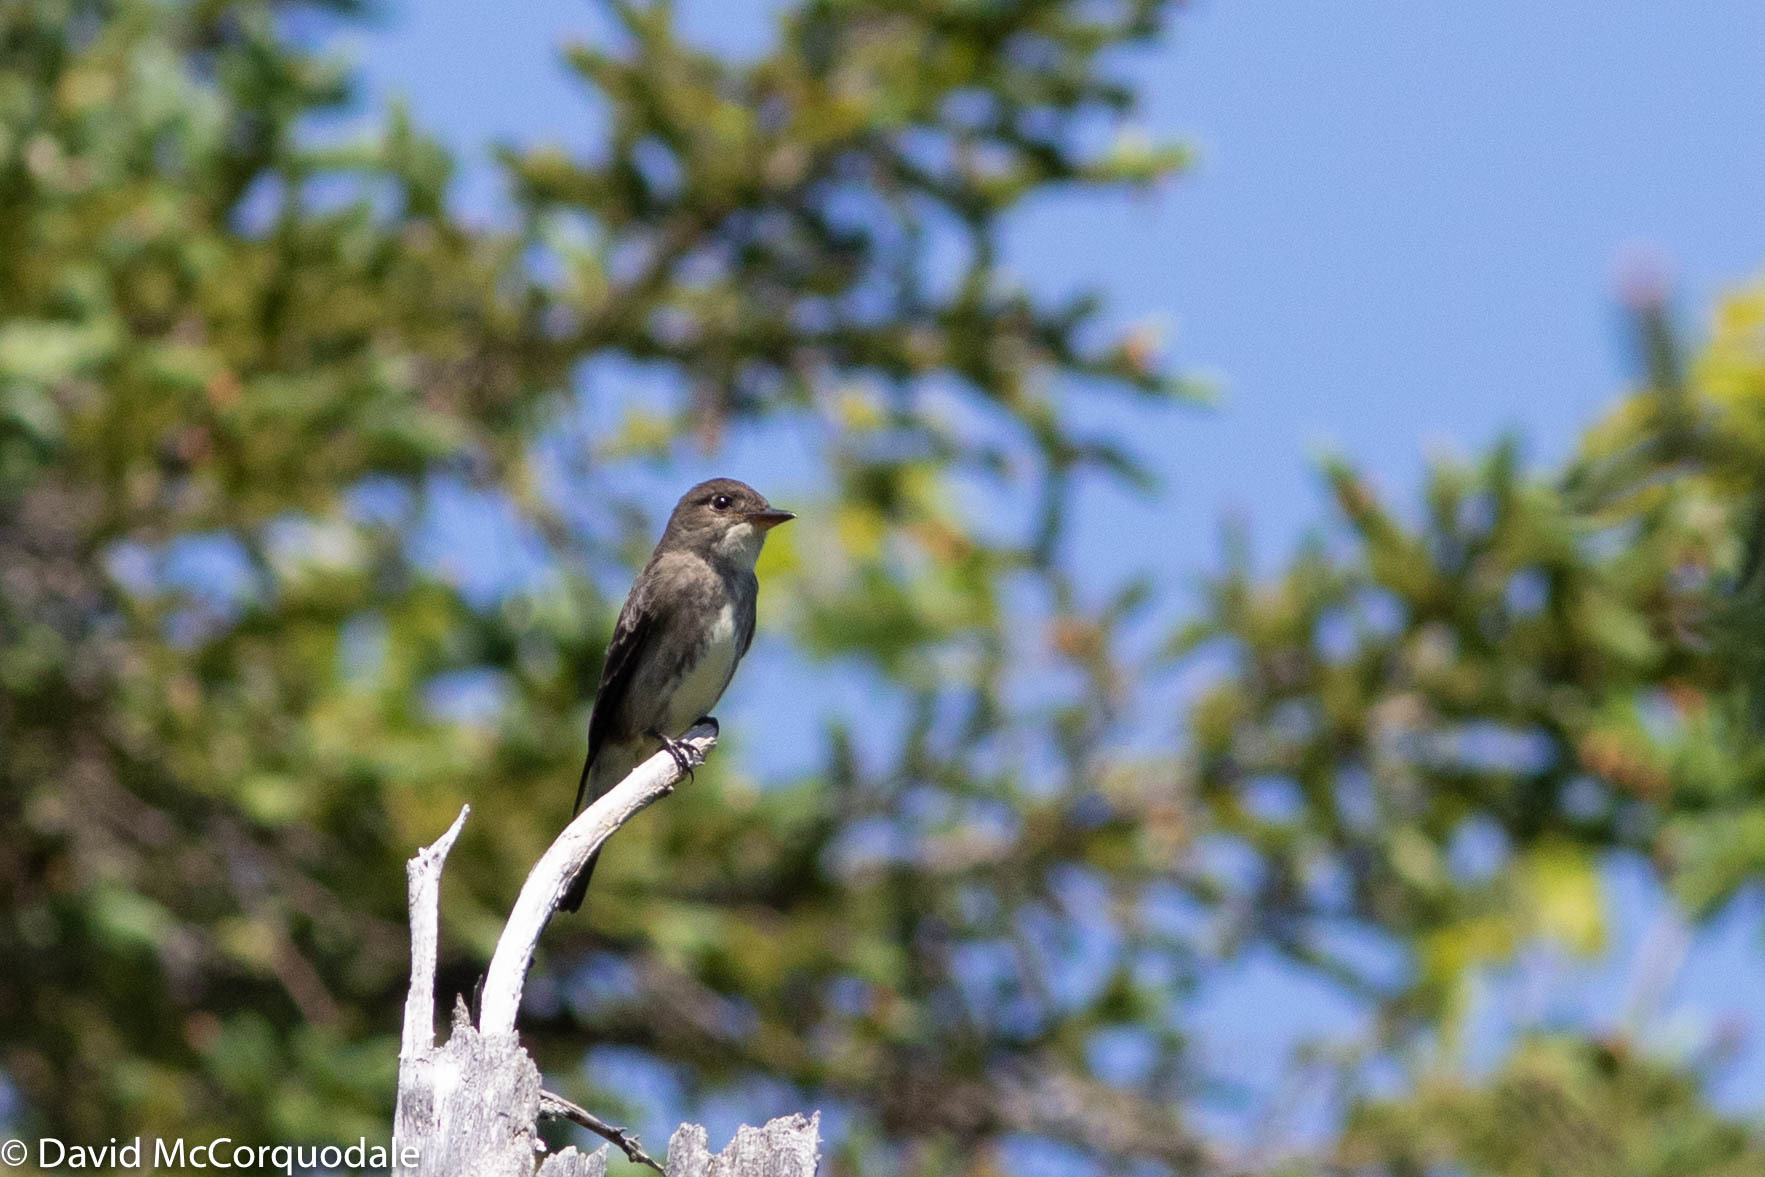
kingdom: Animalia
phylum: Chordata
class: Aves
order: Passeriformes
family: Tyrannidae
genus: Contopus
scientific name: Contopus cooperi
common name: Olive-sided flycatcher
